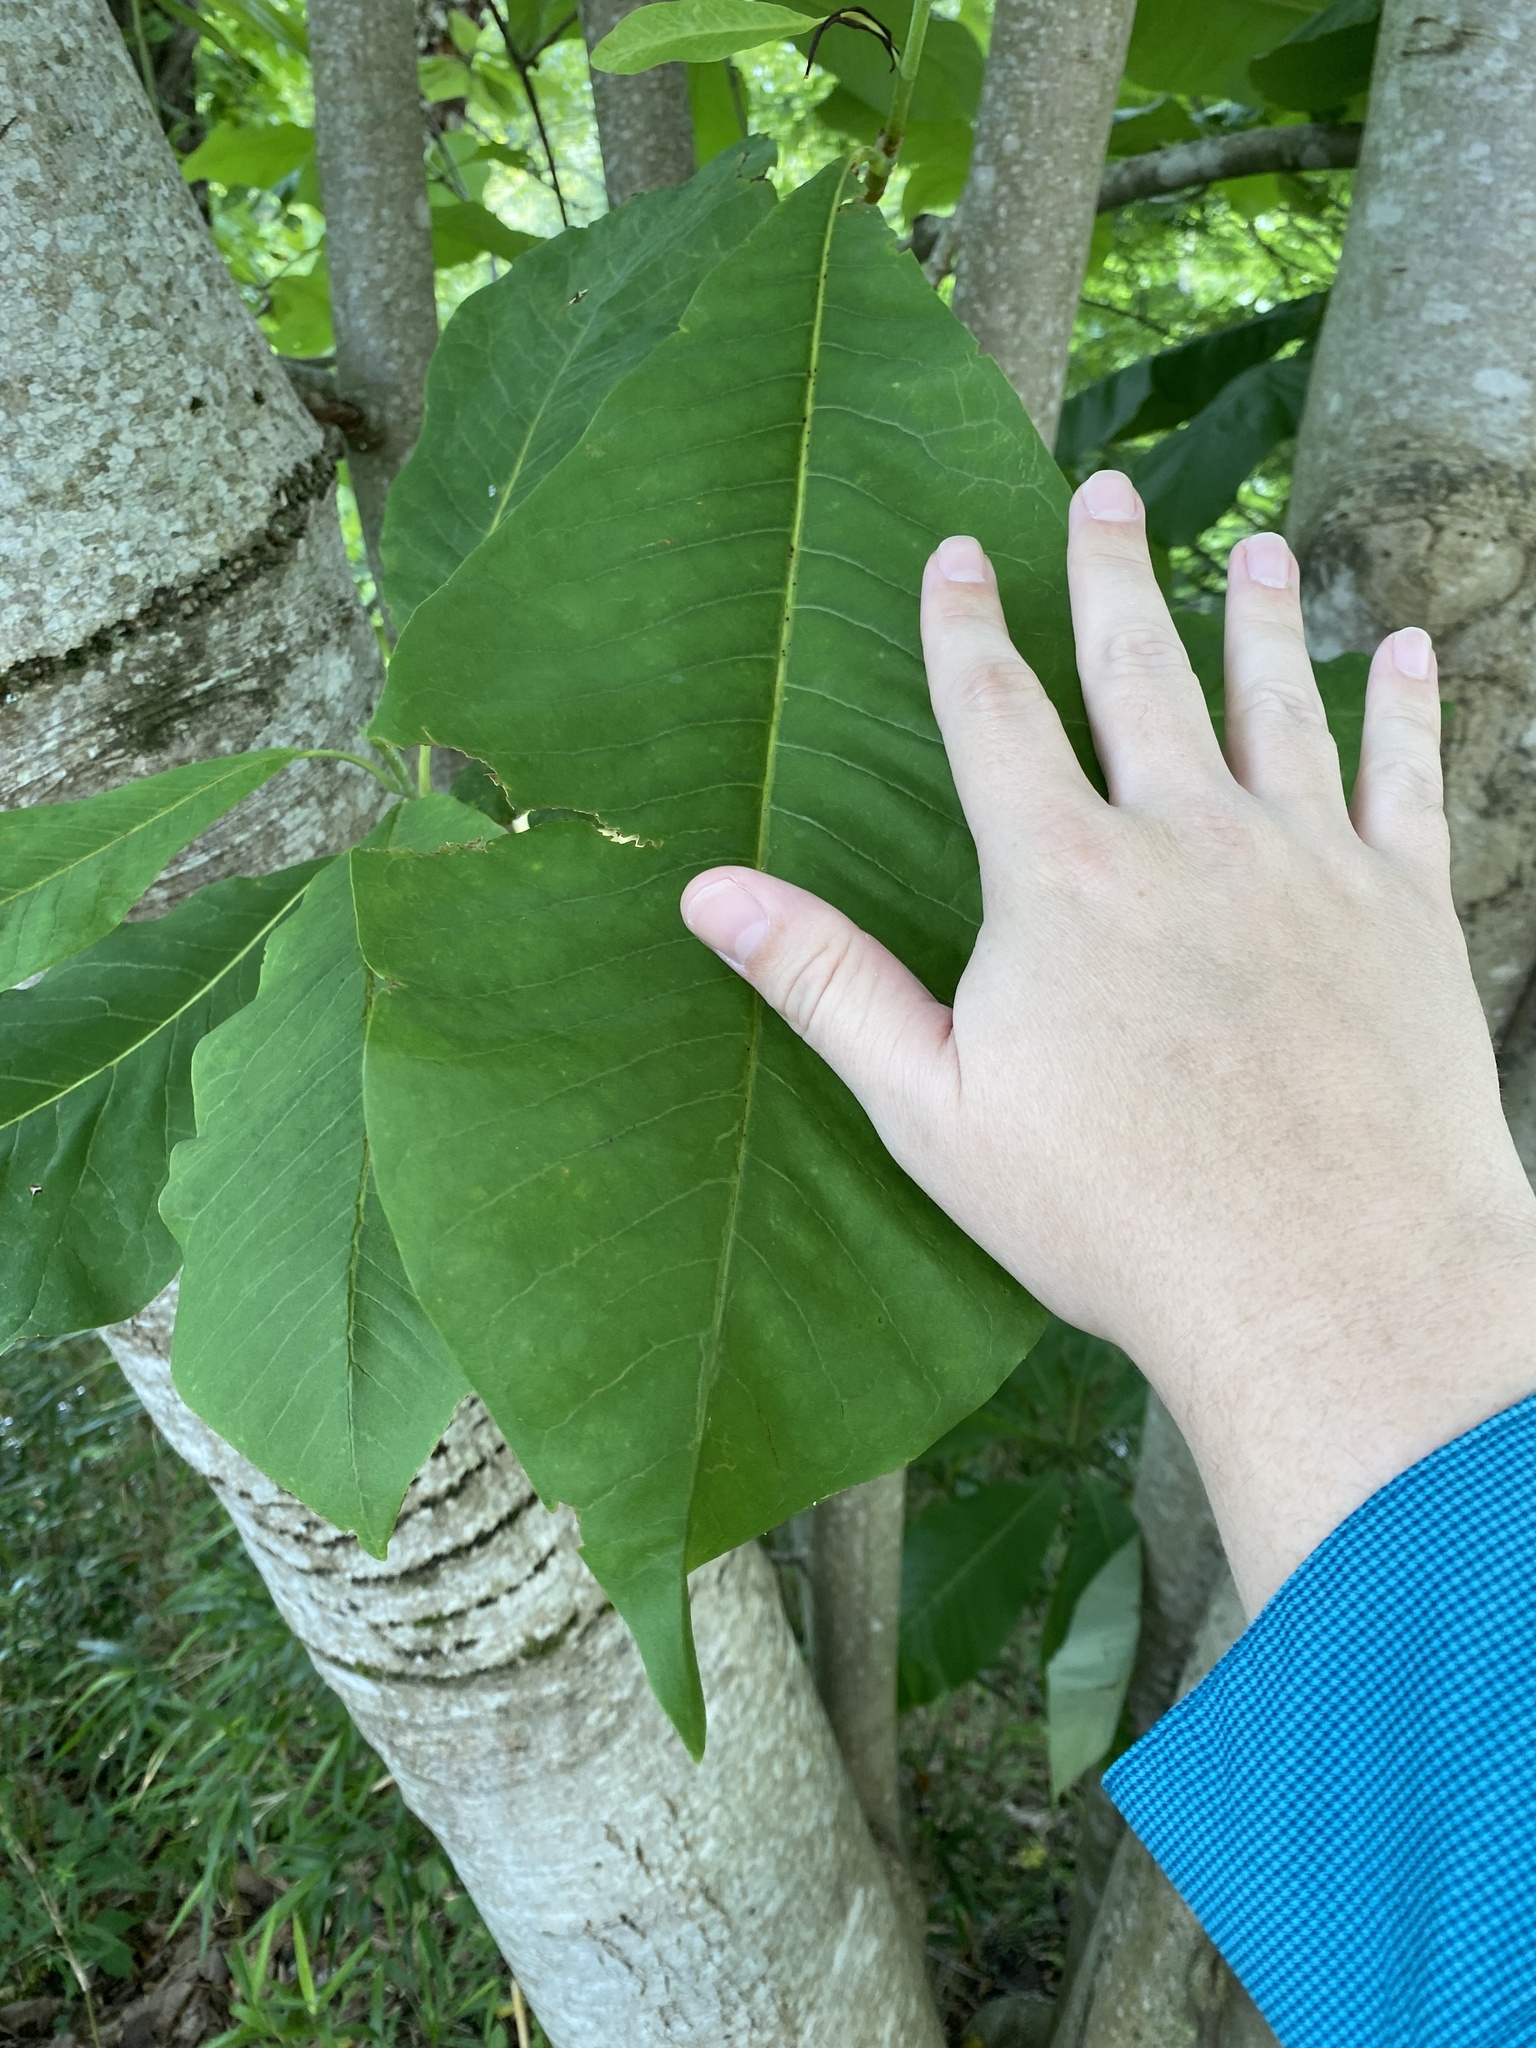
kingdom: Plantae
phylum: Tracheophyta
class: Magnoliopsida
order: Magnoliales
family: Magnoliaceae
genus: Magnolia
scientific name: Magnolia tripetala
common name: Umbrella magnolia
